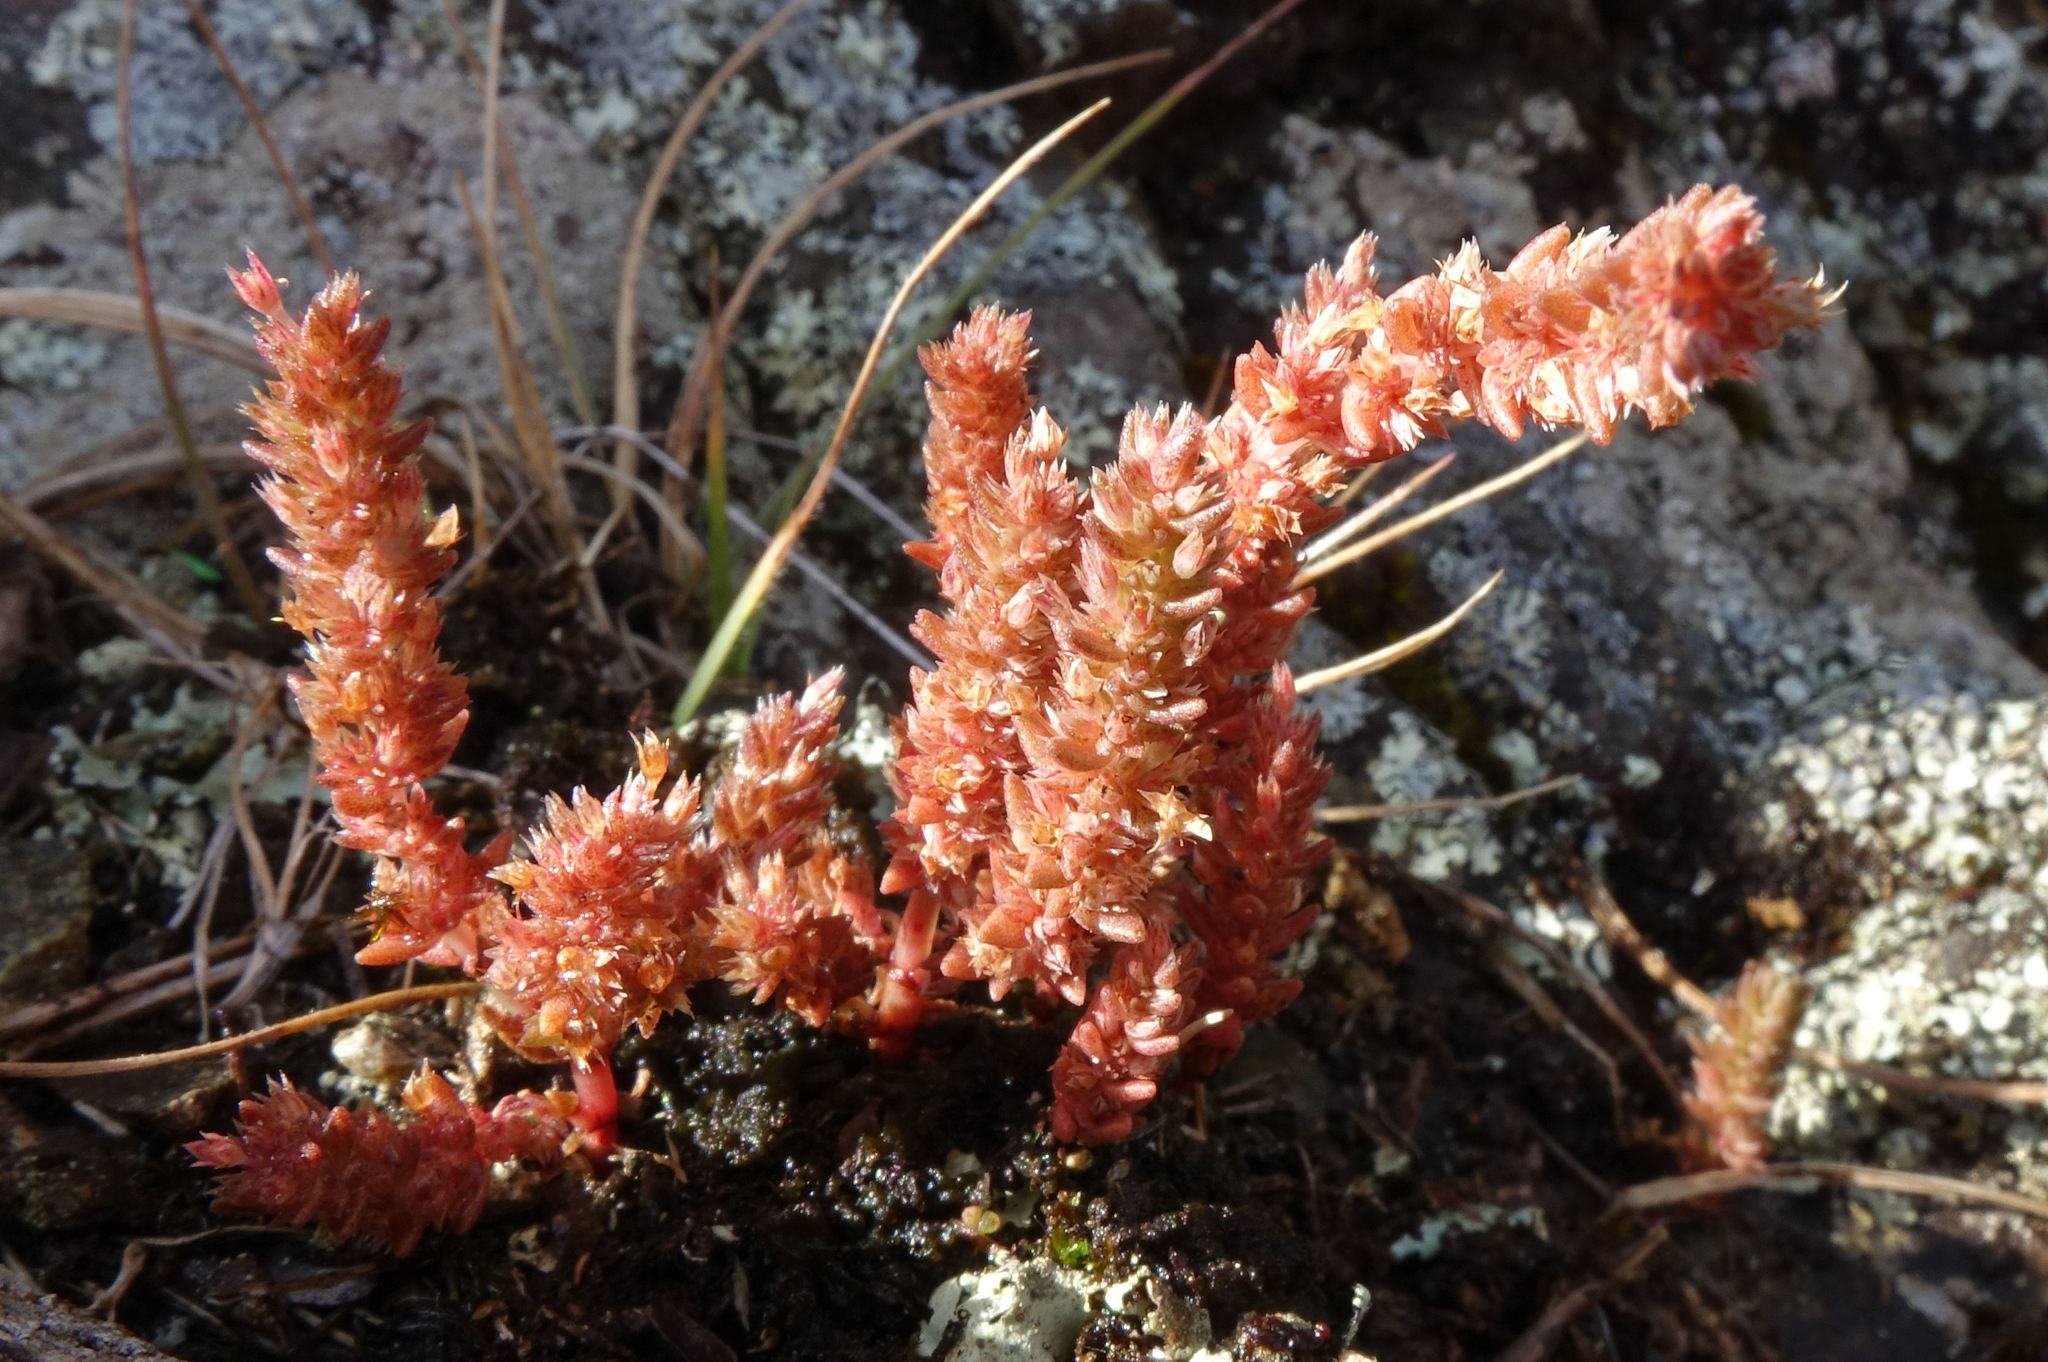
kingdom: Plantae
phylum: Tracheophyta
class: Magnoliopsida
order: Saxifragales
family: Crassulaceae
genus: Crassula
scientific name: Crassula colligata
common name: Pygmyweed
